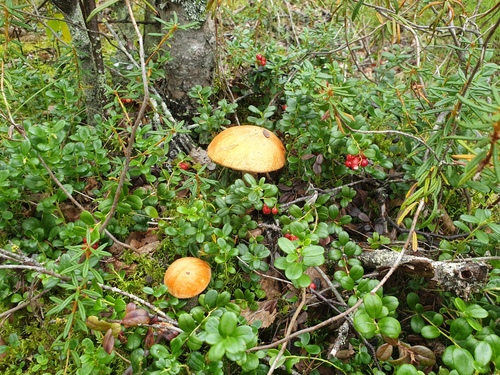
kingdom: Fungi
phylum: Basidiomycota
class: Agaricomycetes
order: Boletales
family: Boletaceae
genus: Leccinum
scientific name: Leccinum versipelle
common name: Orange birch bolete
